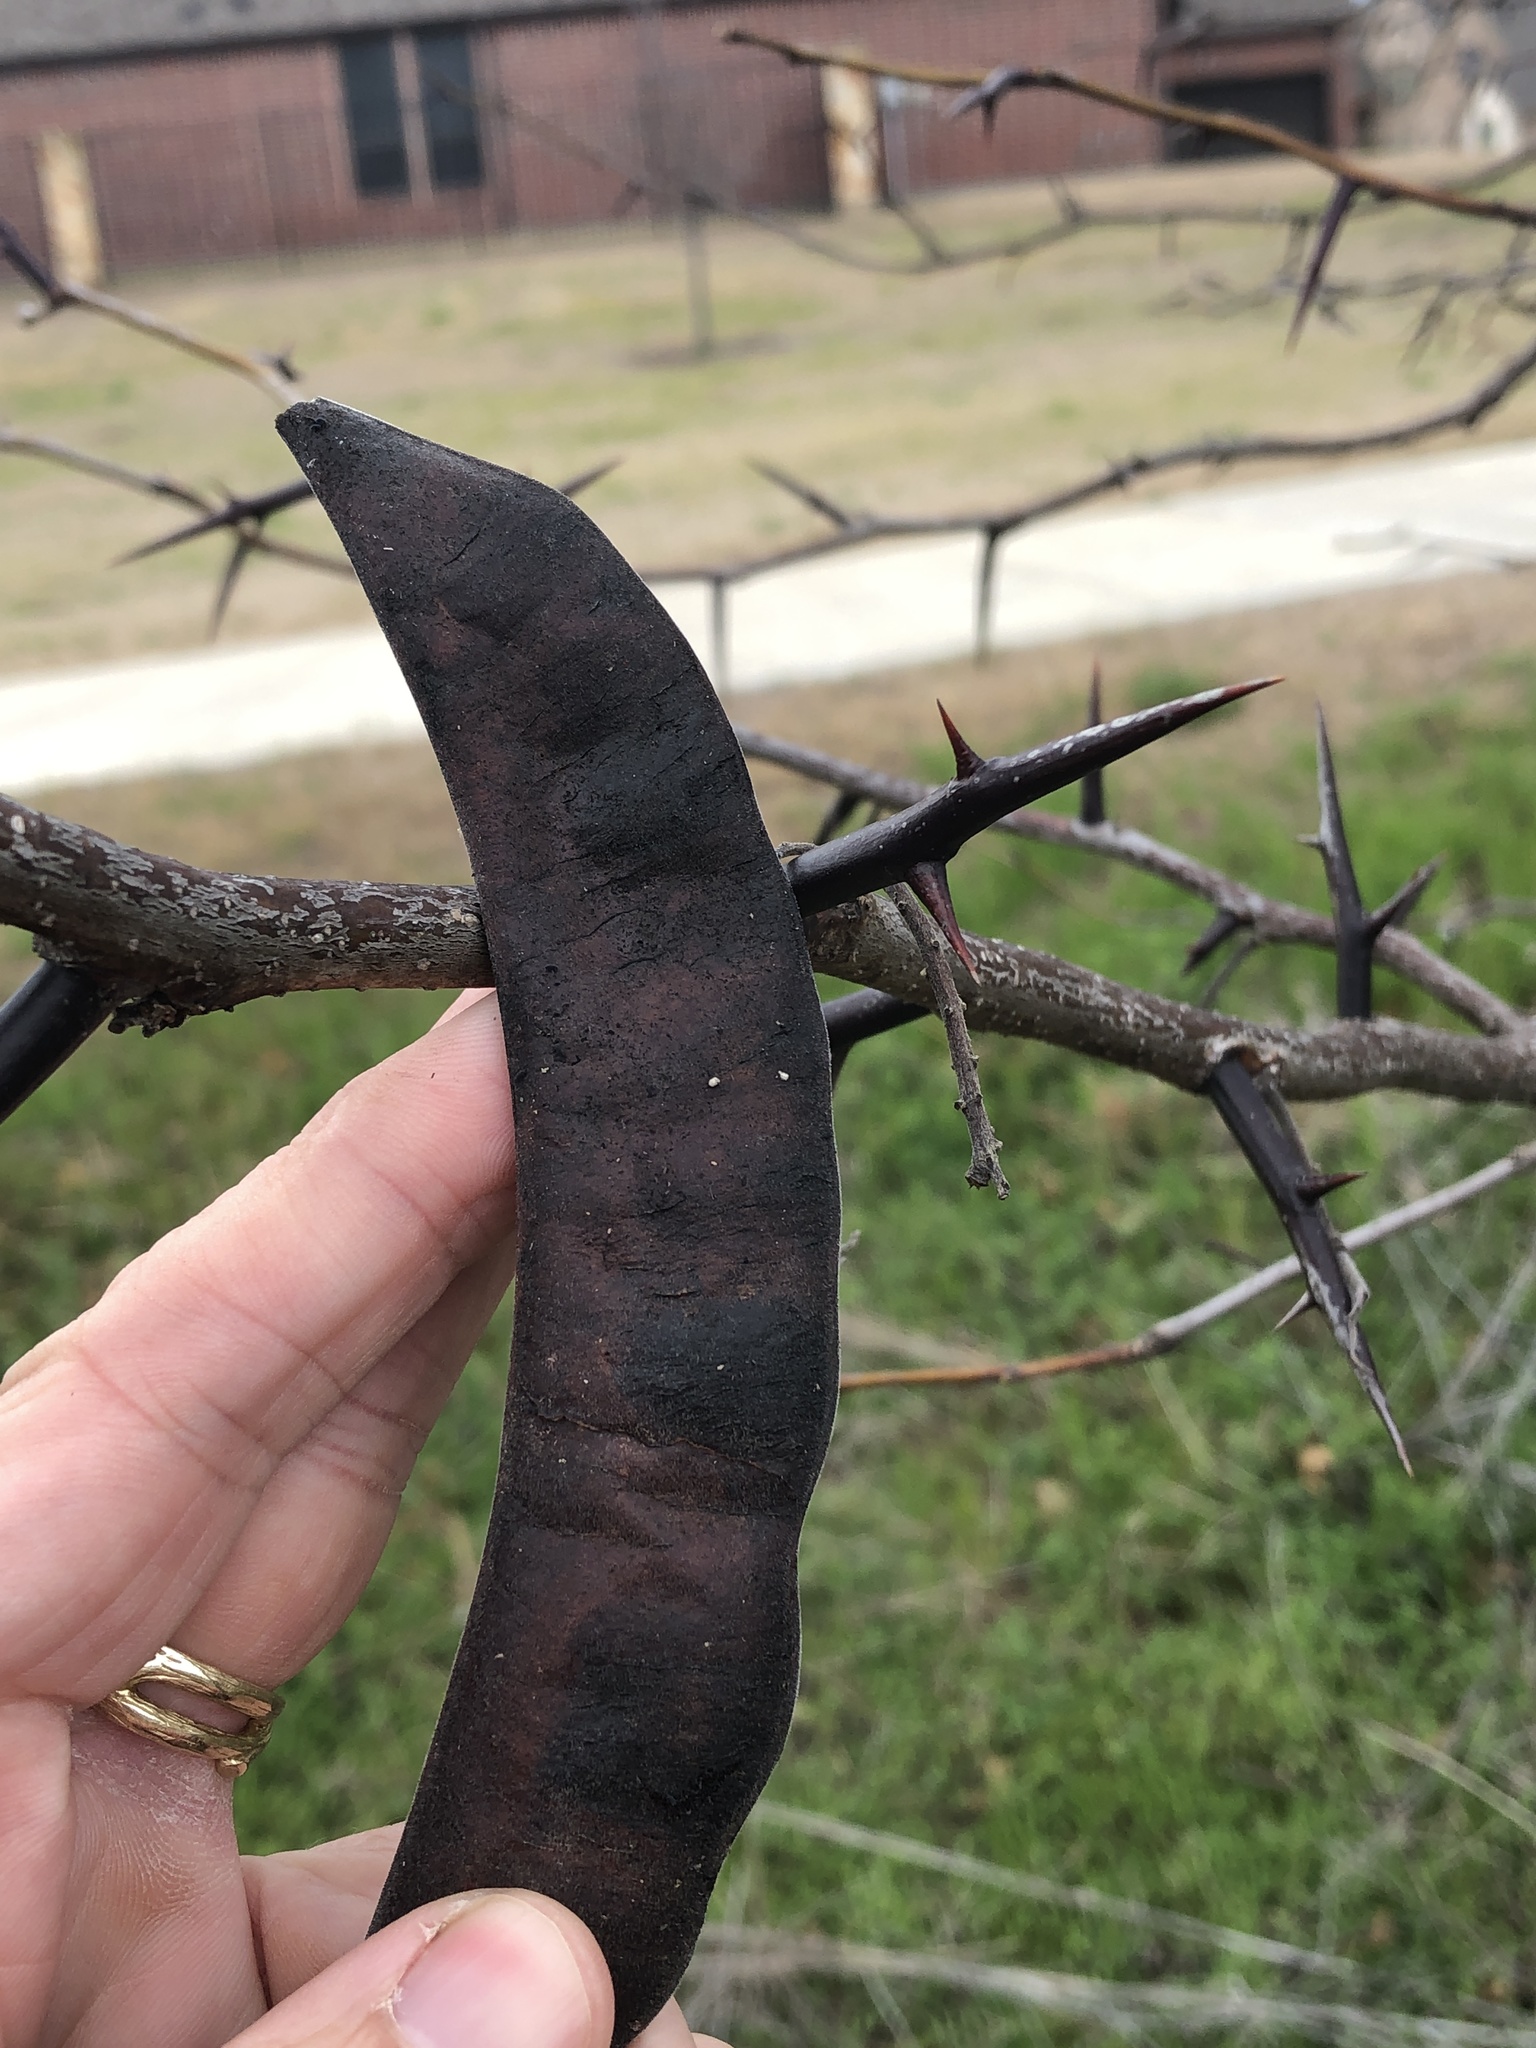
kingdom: Plantae
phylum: Tracheophyta
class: Magnoliopsida
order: Fabales
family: Fabaceae
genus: Gleditsia
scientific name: Gleditsia triacanthos
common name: Common honeylocust
